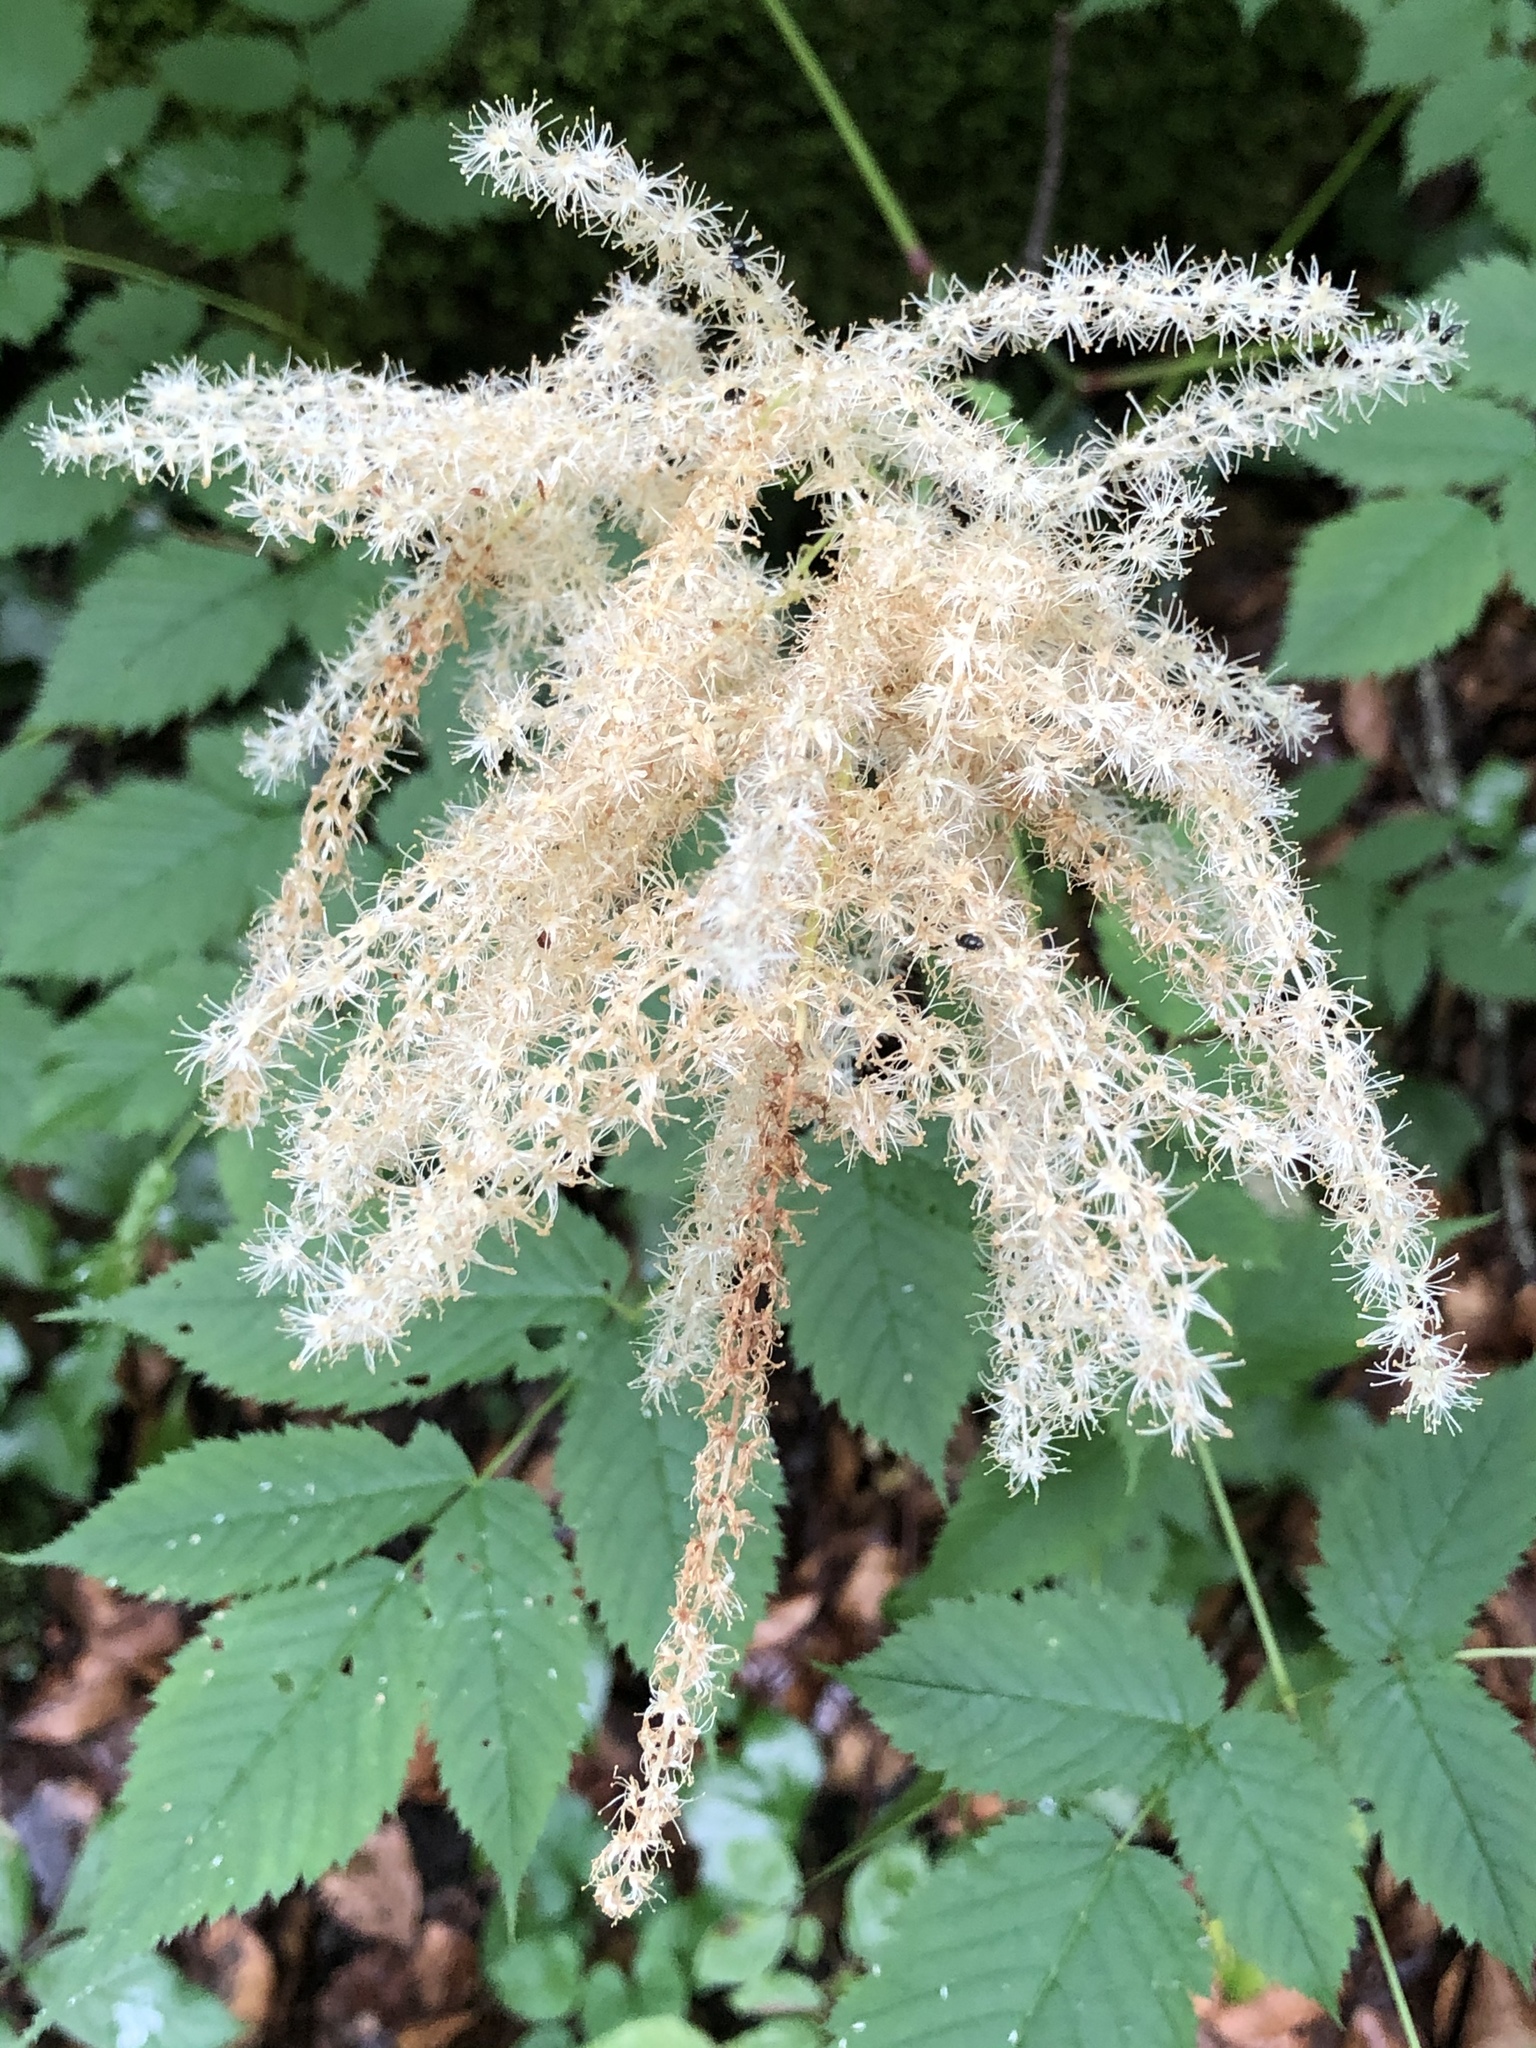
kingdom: Plantae
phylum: Tracheophyta
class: Magnoliopsida
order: Rosales
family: Rosaceae
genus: Aruncus
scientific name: Aruncus dioicus
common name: Buck's-beard
